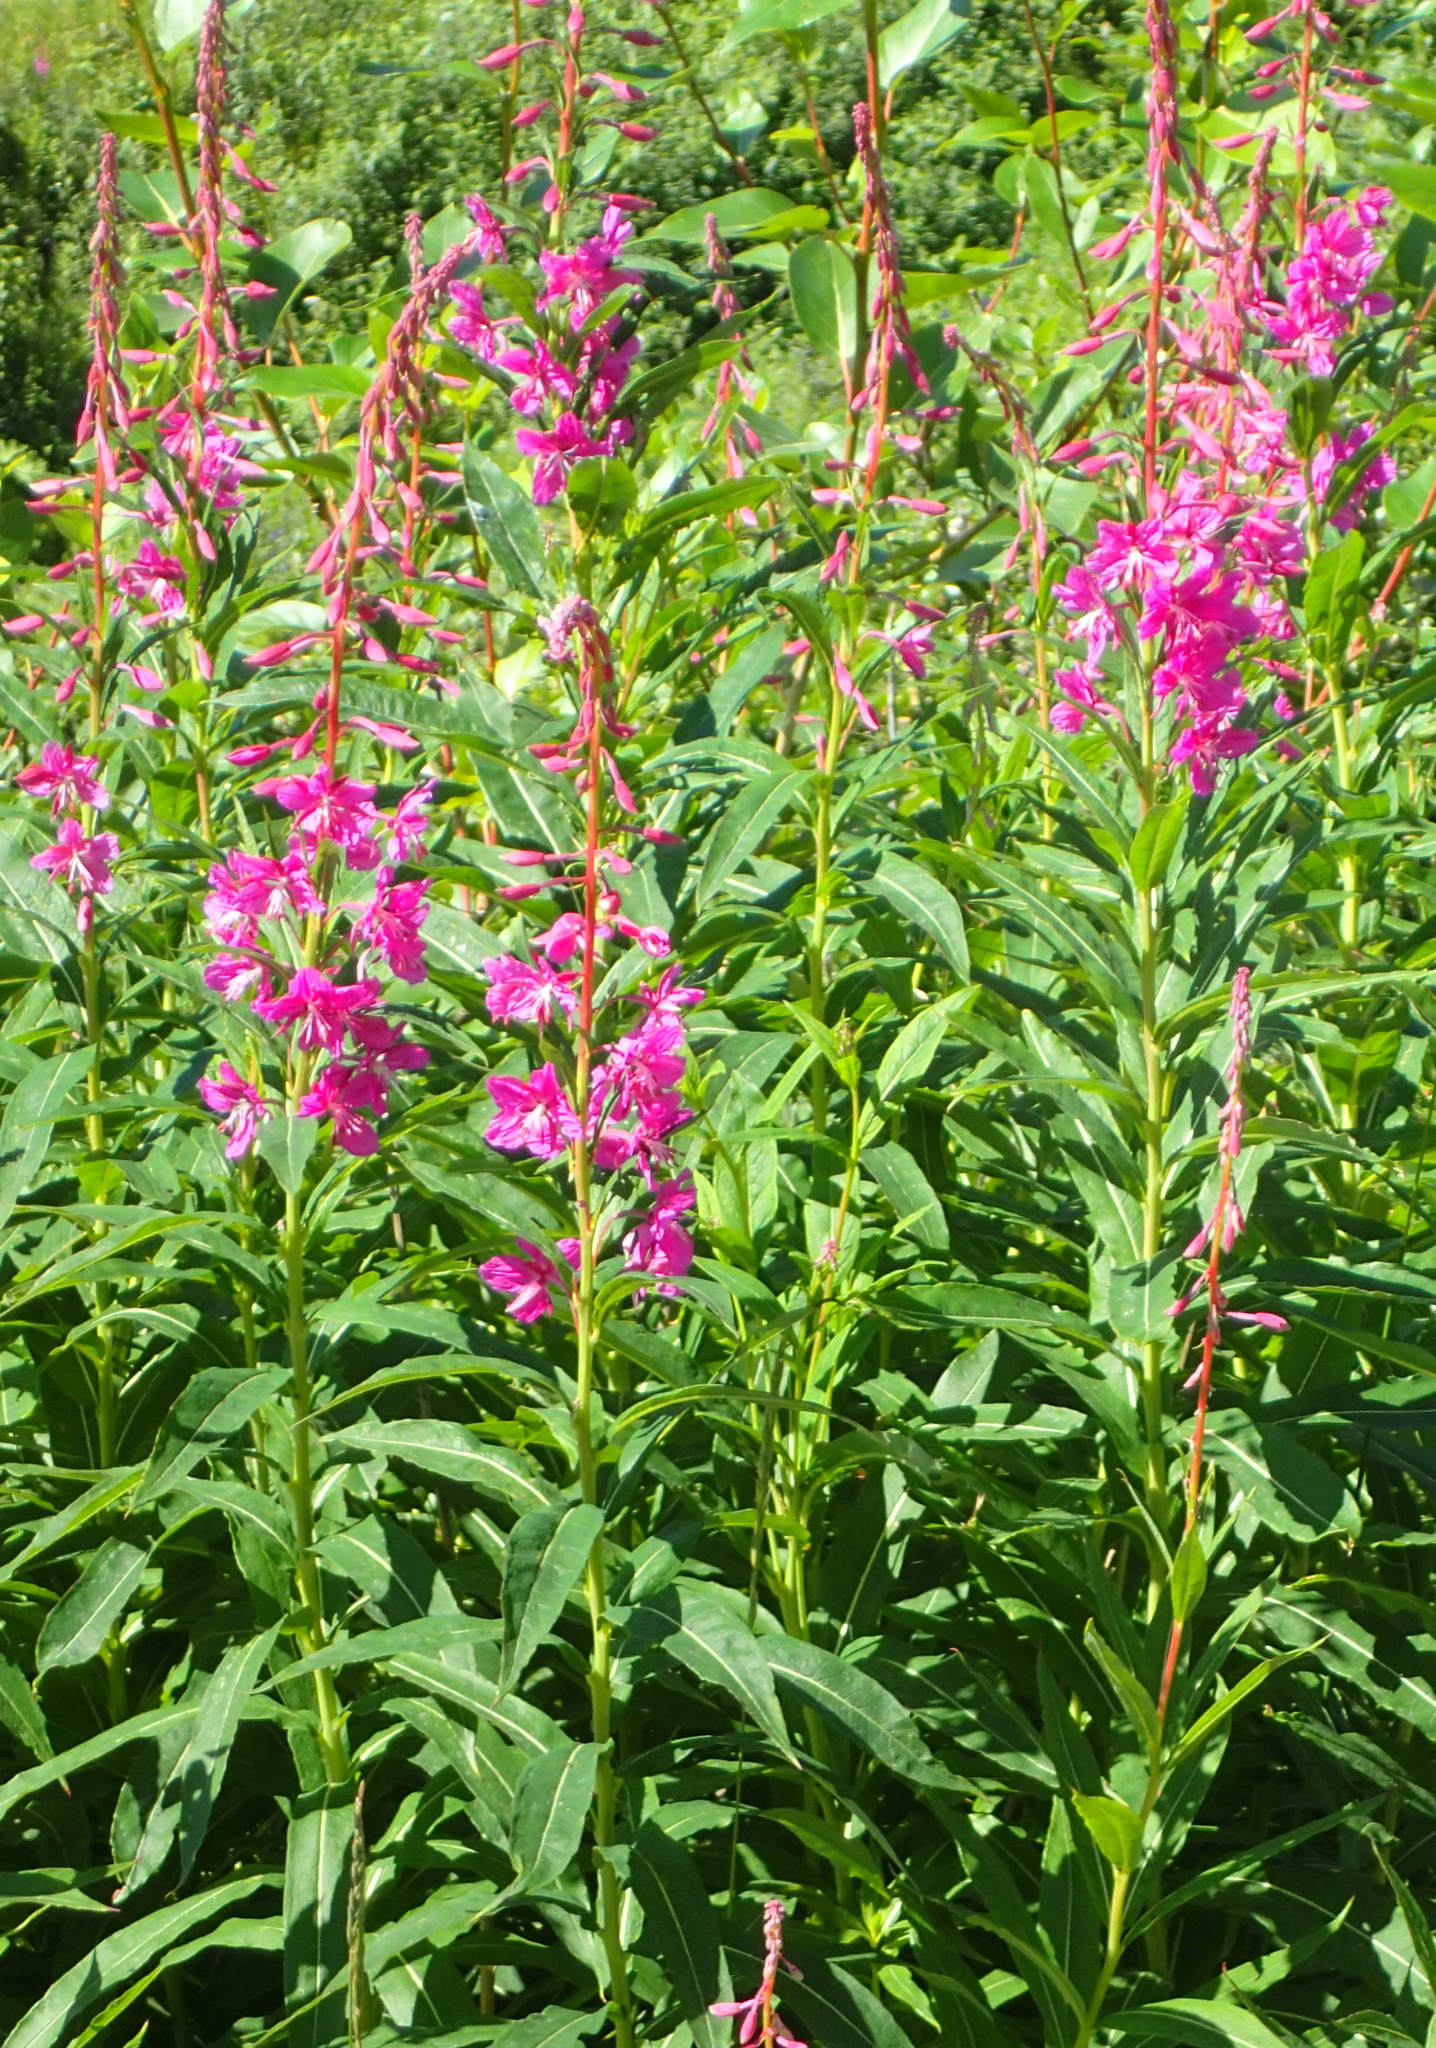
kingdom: Plantae
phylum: Tracheophyta
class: Magnoliopsida
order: Myrtales
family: Onagraceae
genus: Chamaenerion
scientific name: Chamaenerion angustifolium
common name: Fireweed
